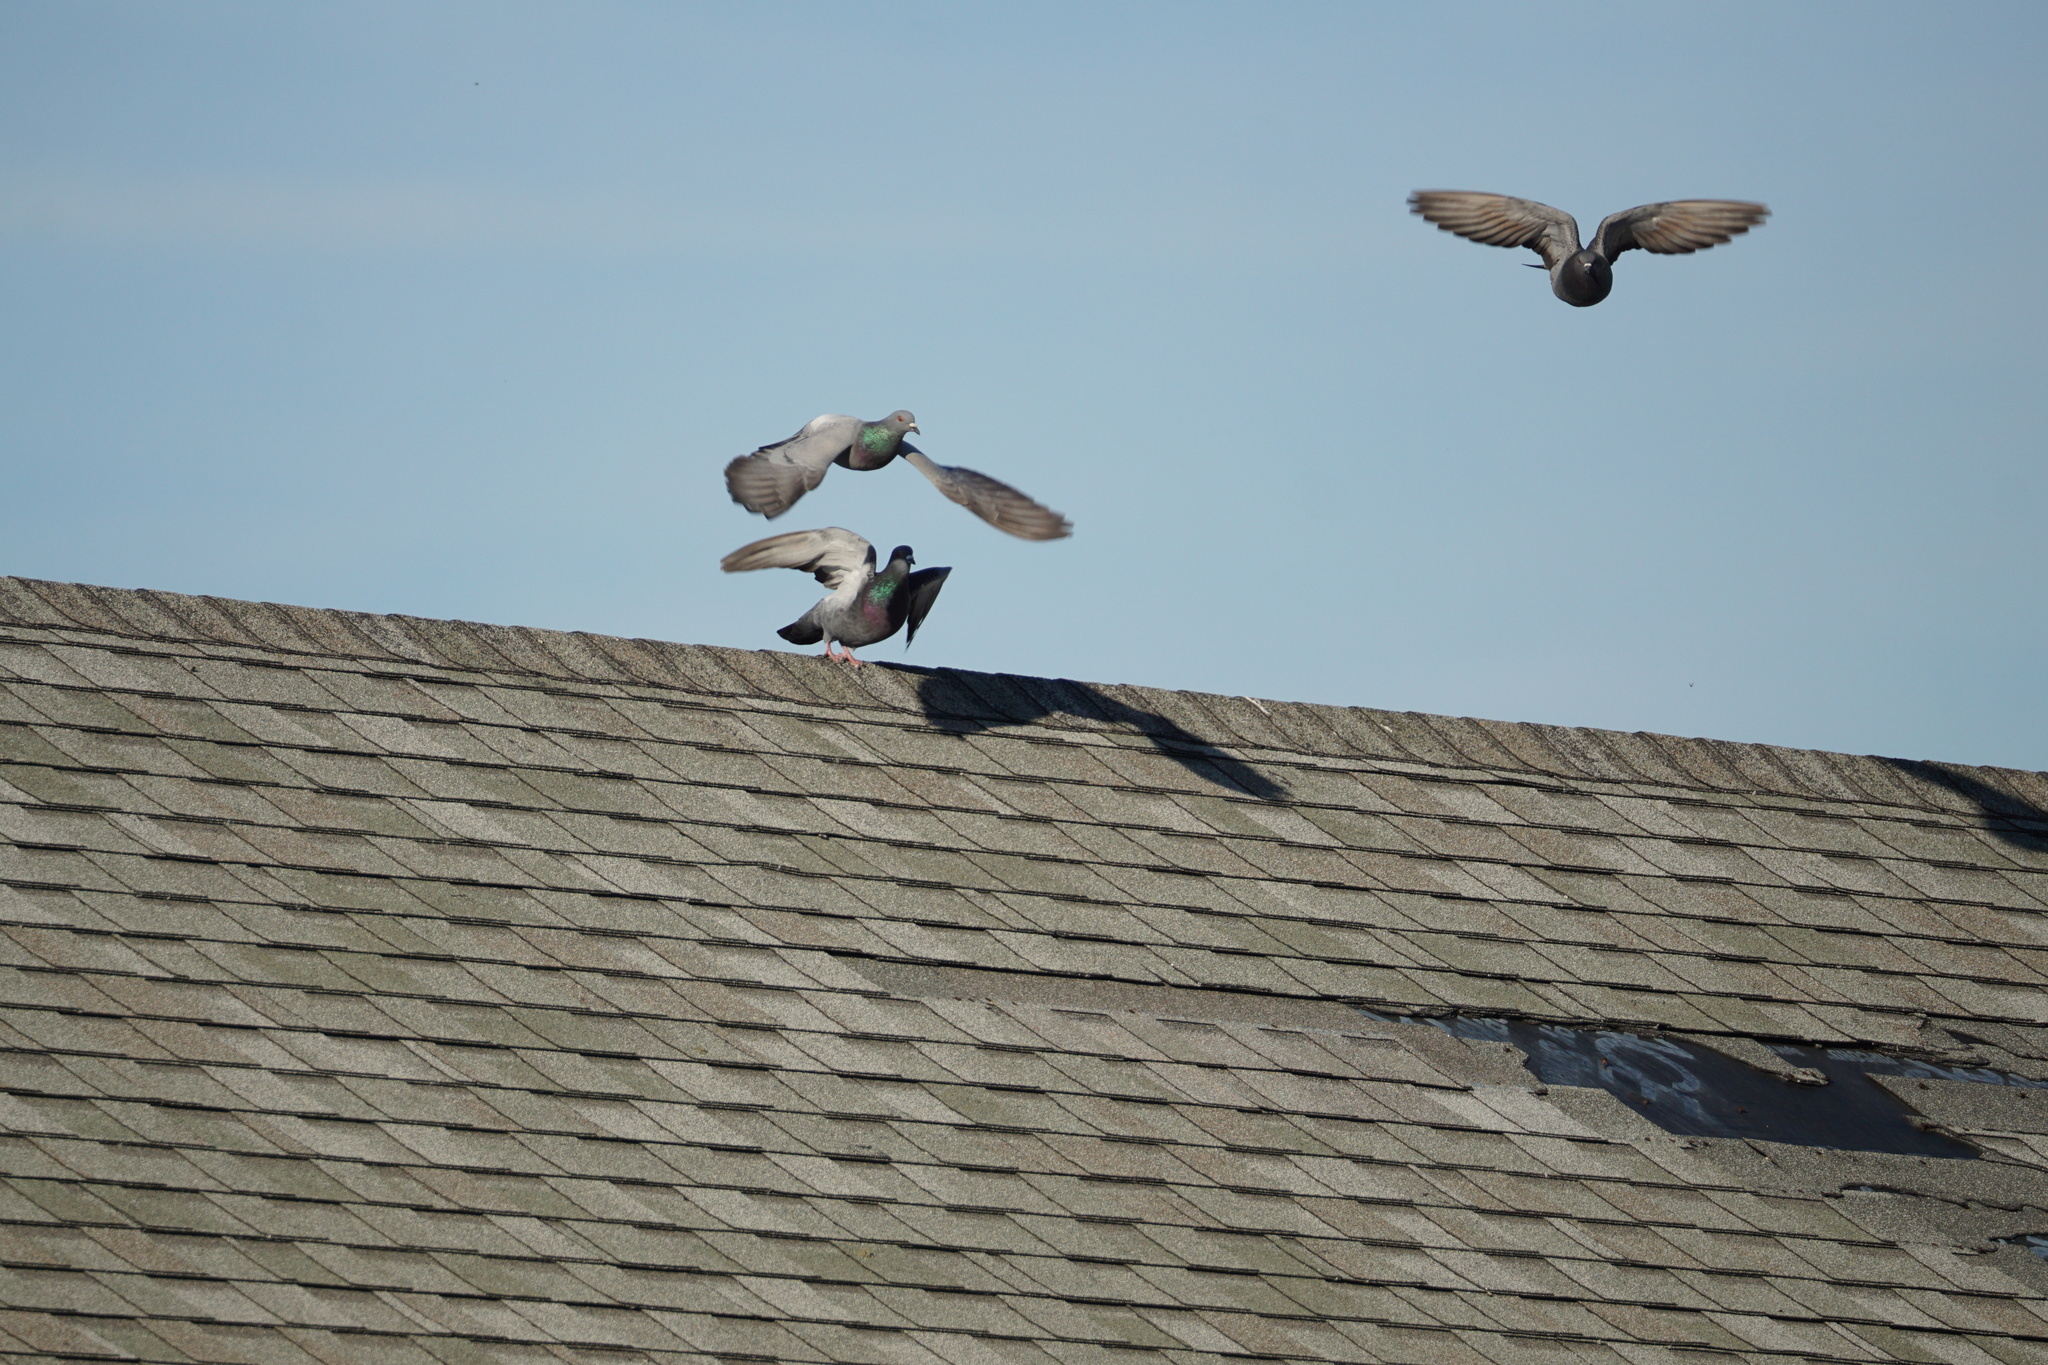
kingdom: Animalia
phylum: Chordata
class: Aves
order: Columbiformes
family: Columbidae
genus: Columba
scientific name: Columba livia
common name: Rock pigeon
